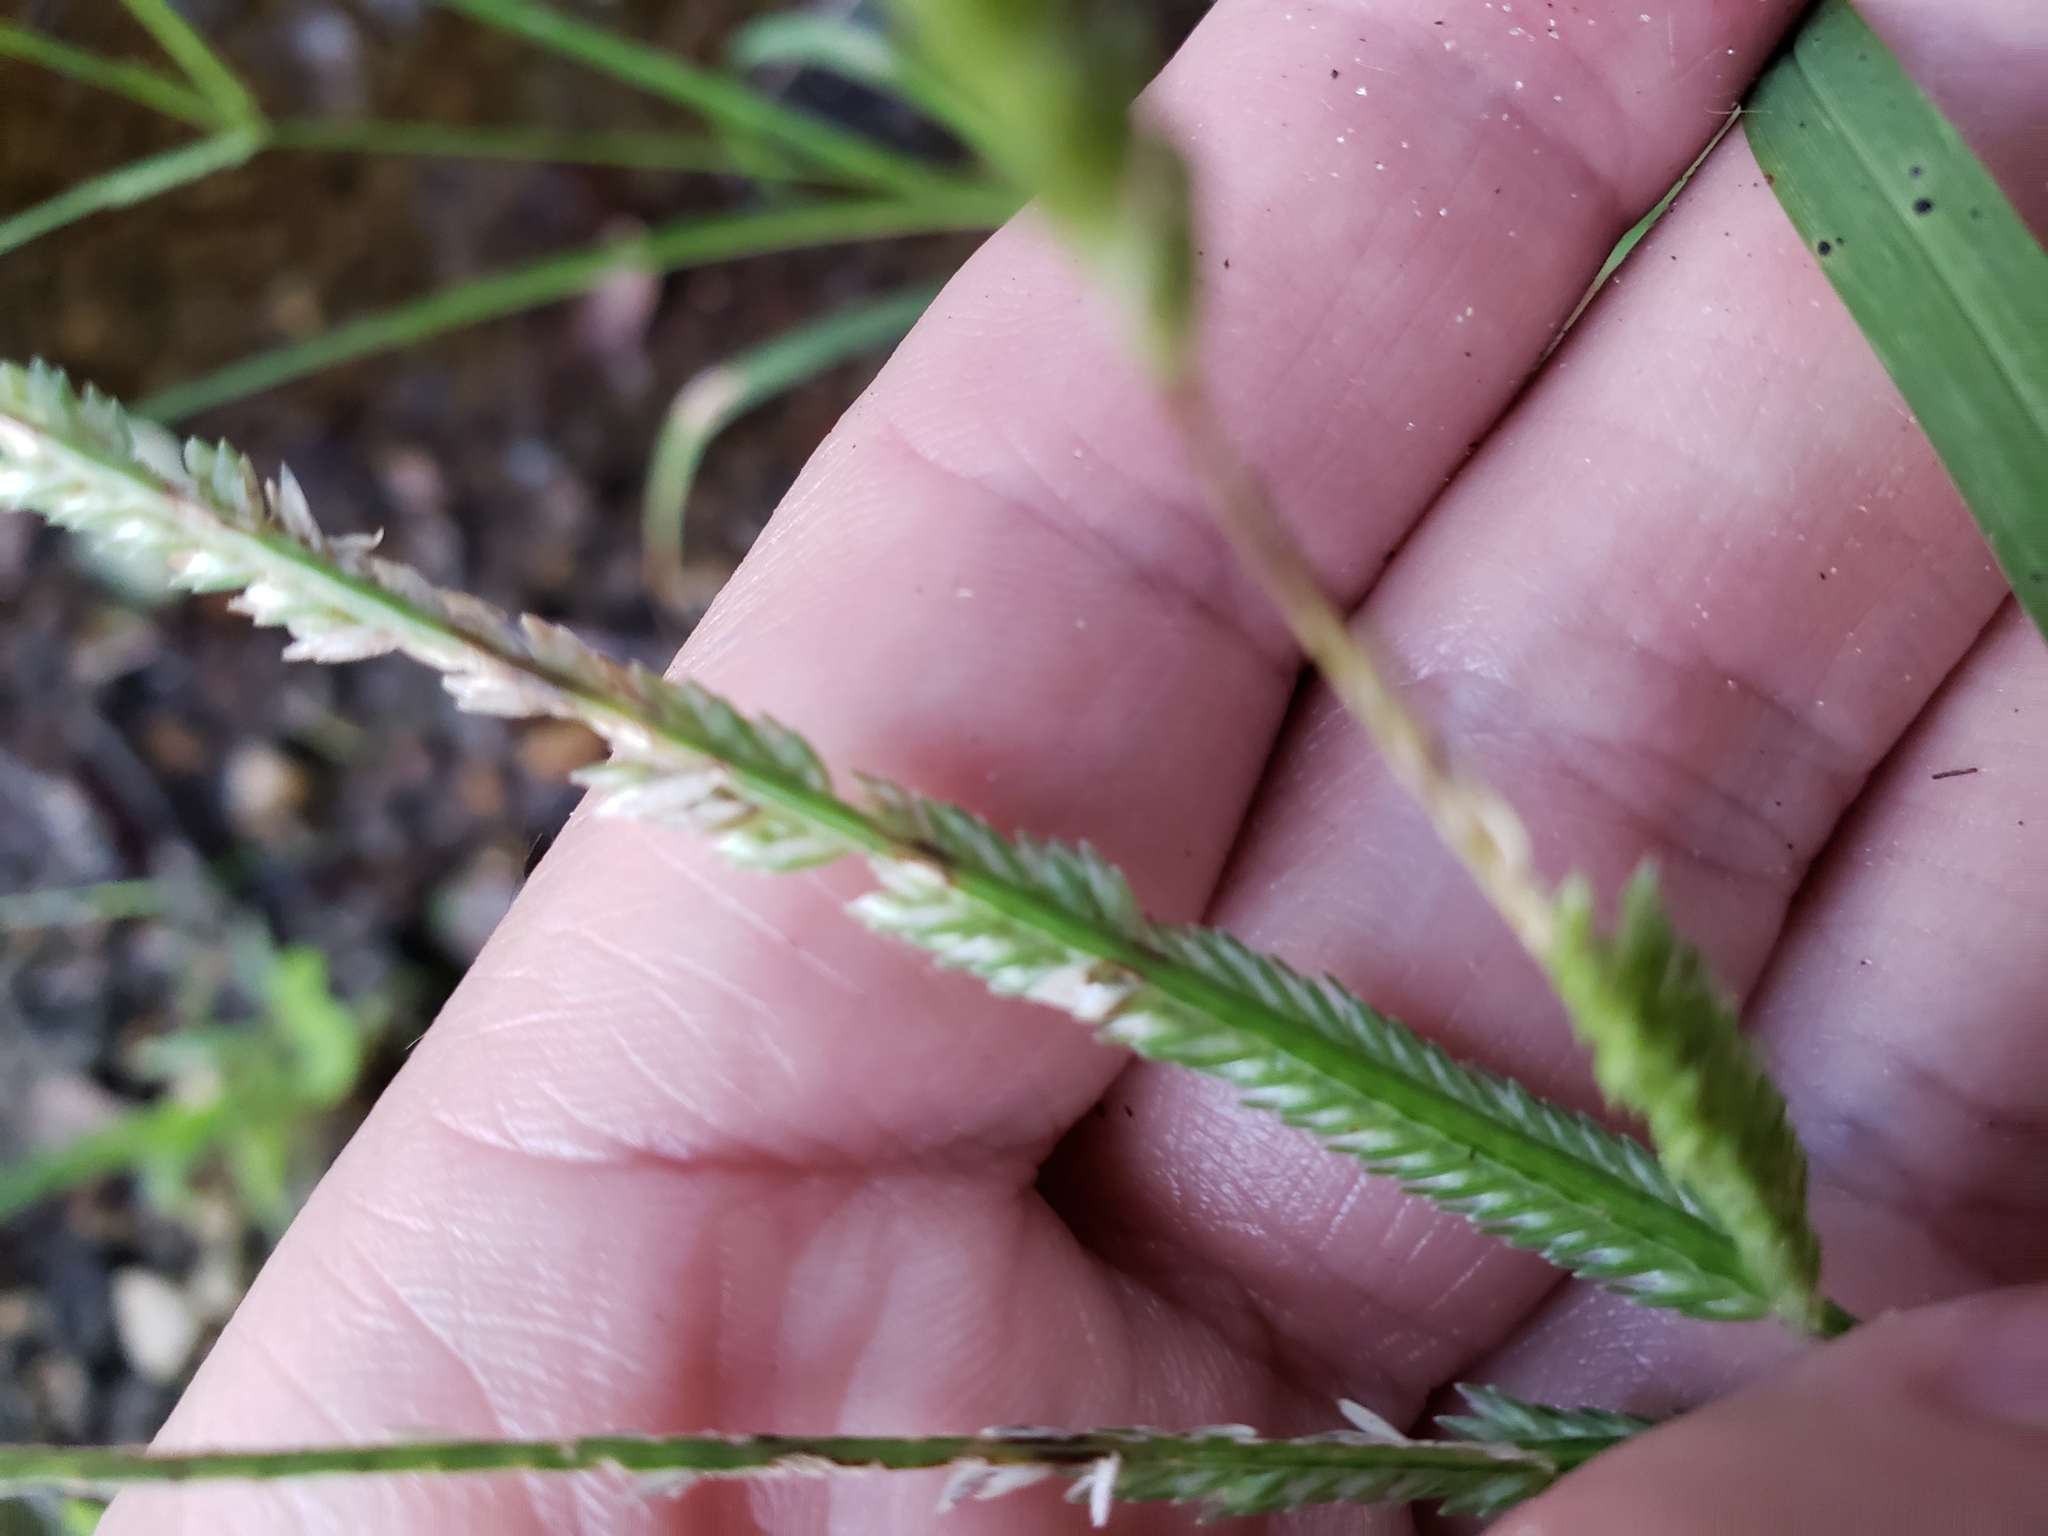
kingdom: Plantae
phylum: Tracheophyta
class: Liliopsida
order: Poales
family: Poaceae
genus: Eleusine
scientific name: Eleusine indica
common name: Yard-grass
